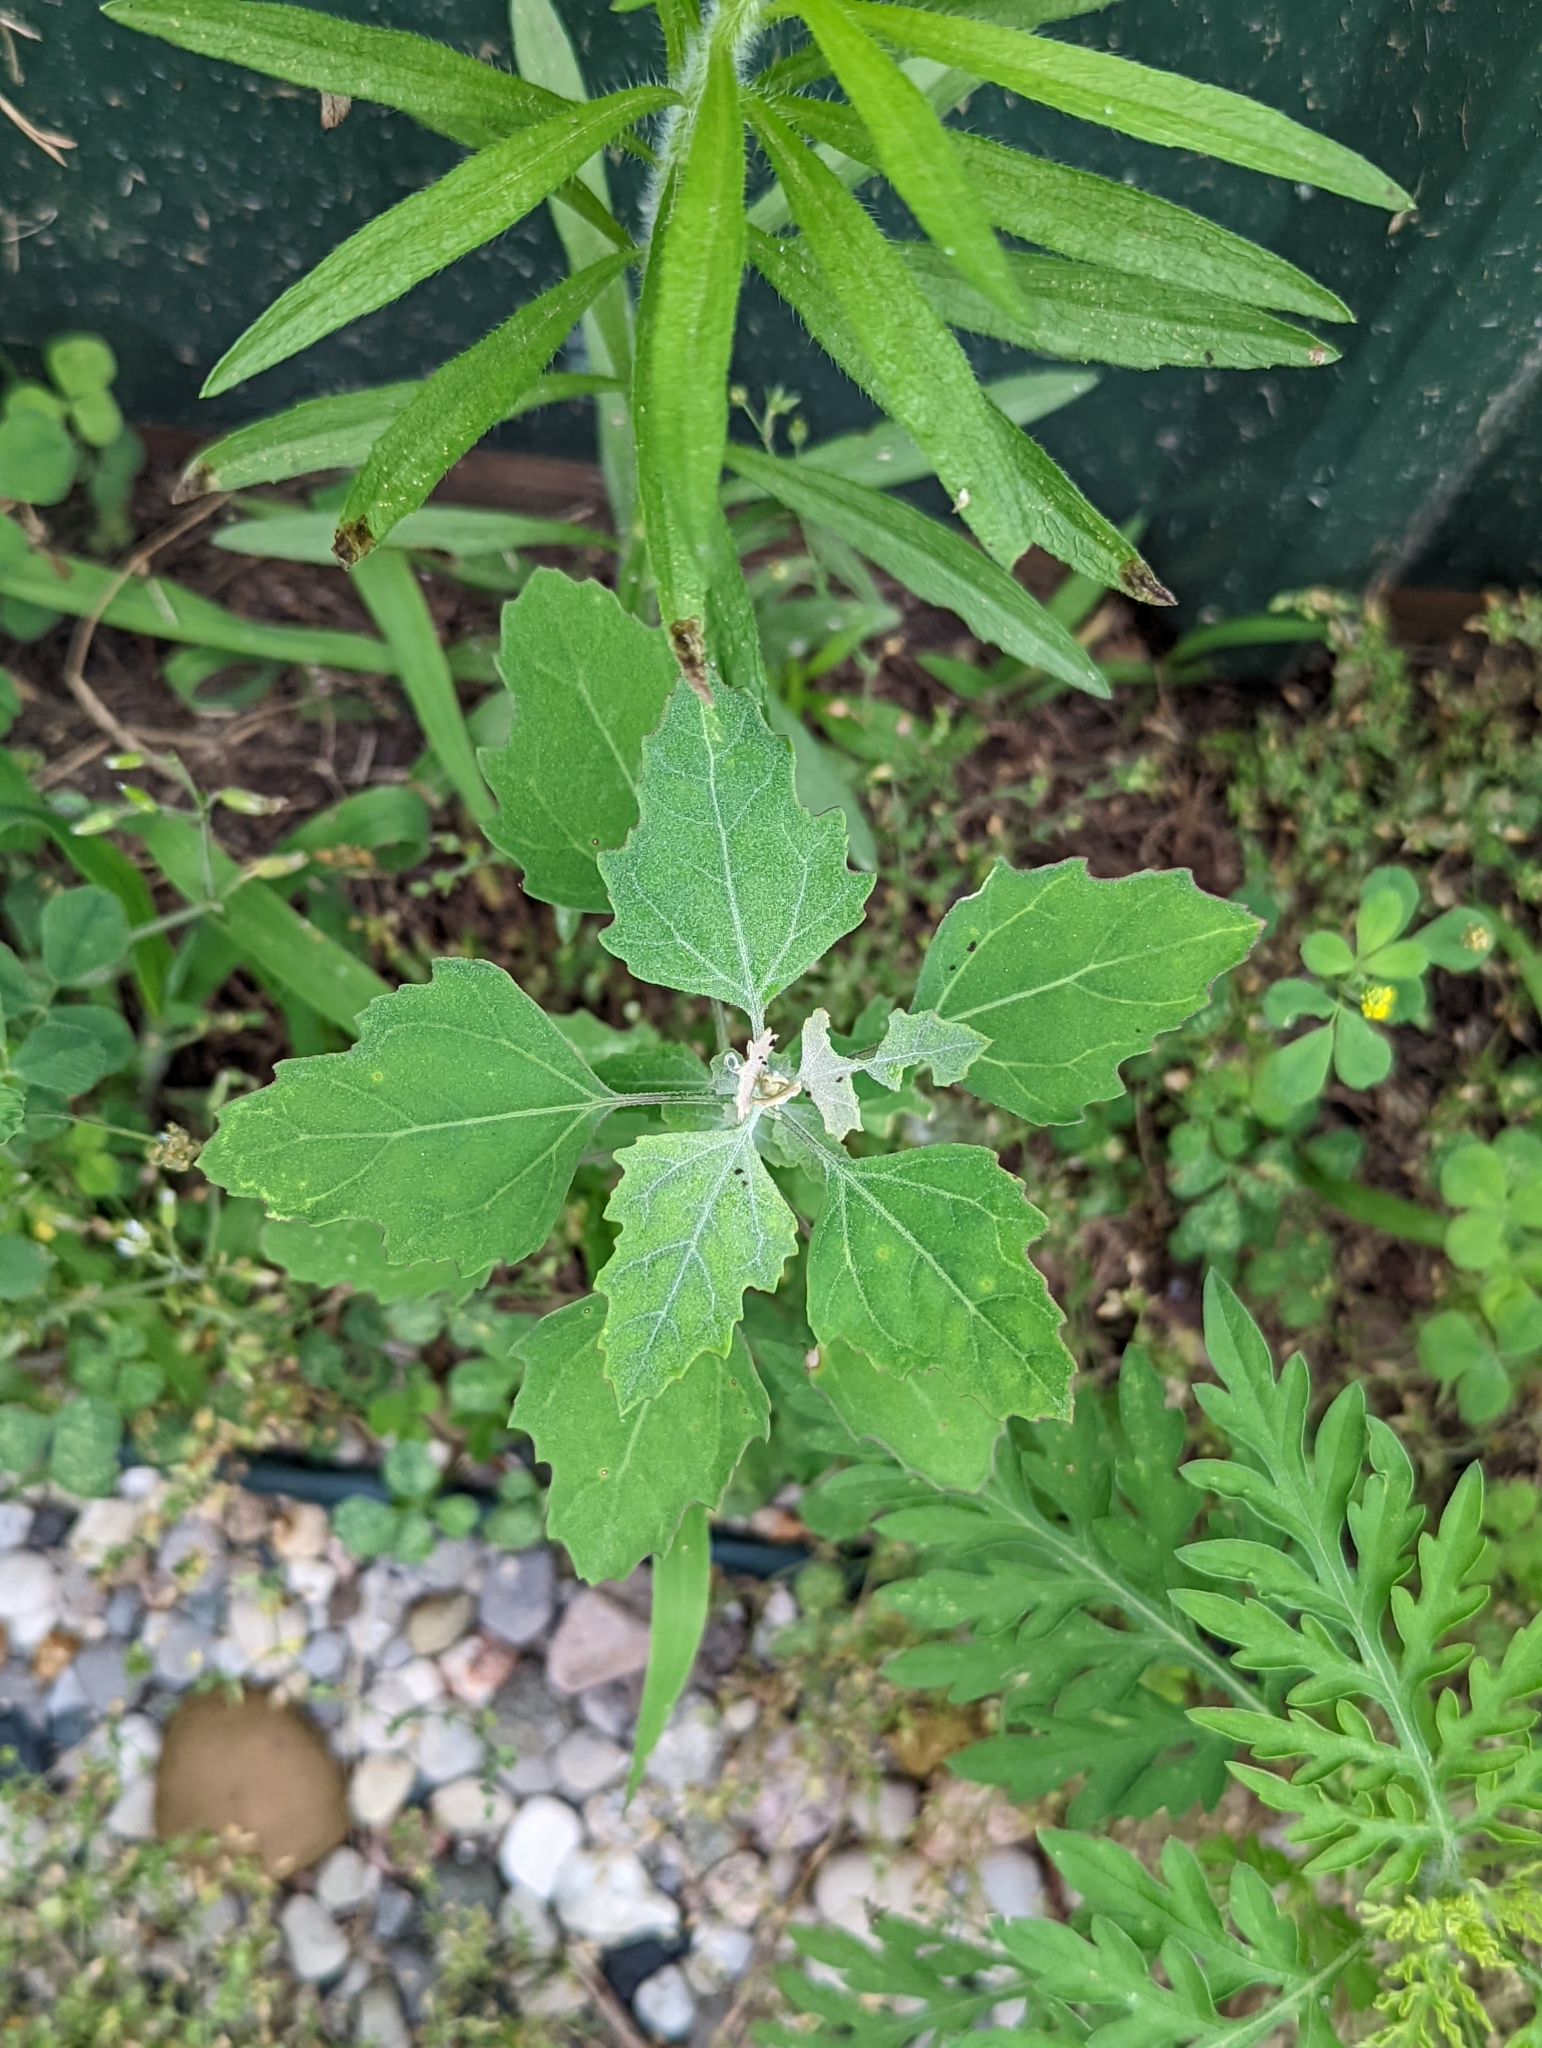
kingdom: Plantae
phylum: Tracheophyta
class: Magnoliopsida
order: Caryophyllales
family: Amaranthaceae
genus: Chenopodium
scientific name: Chenopodium album
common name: Fat-hen
